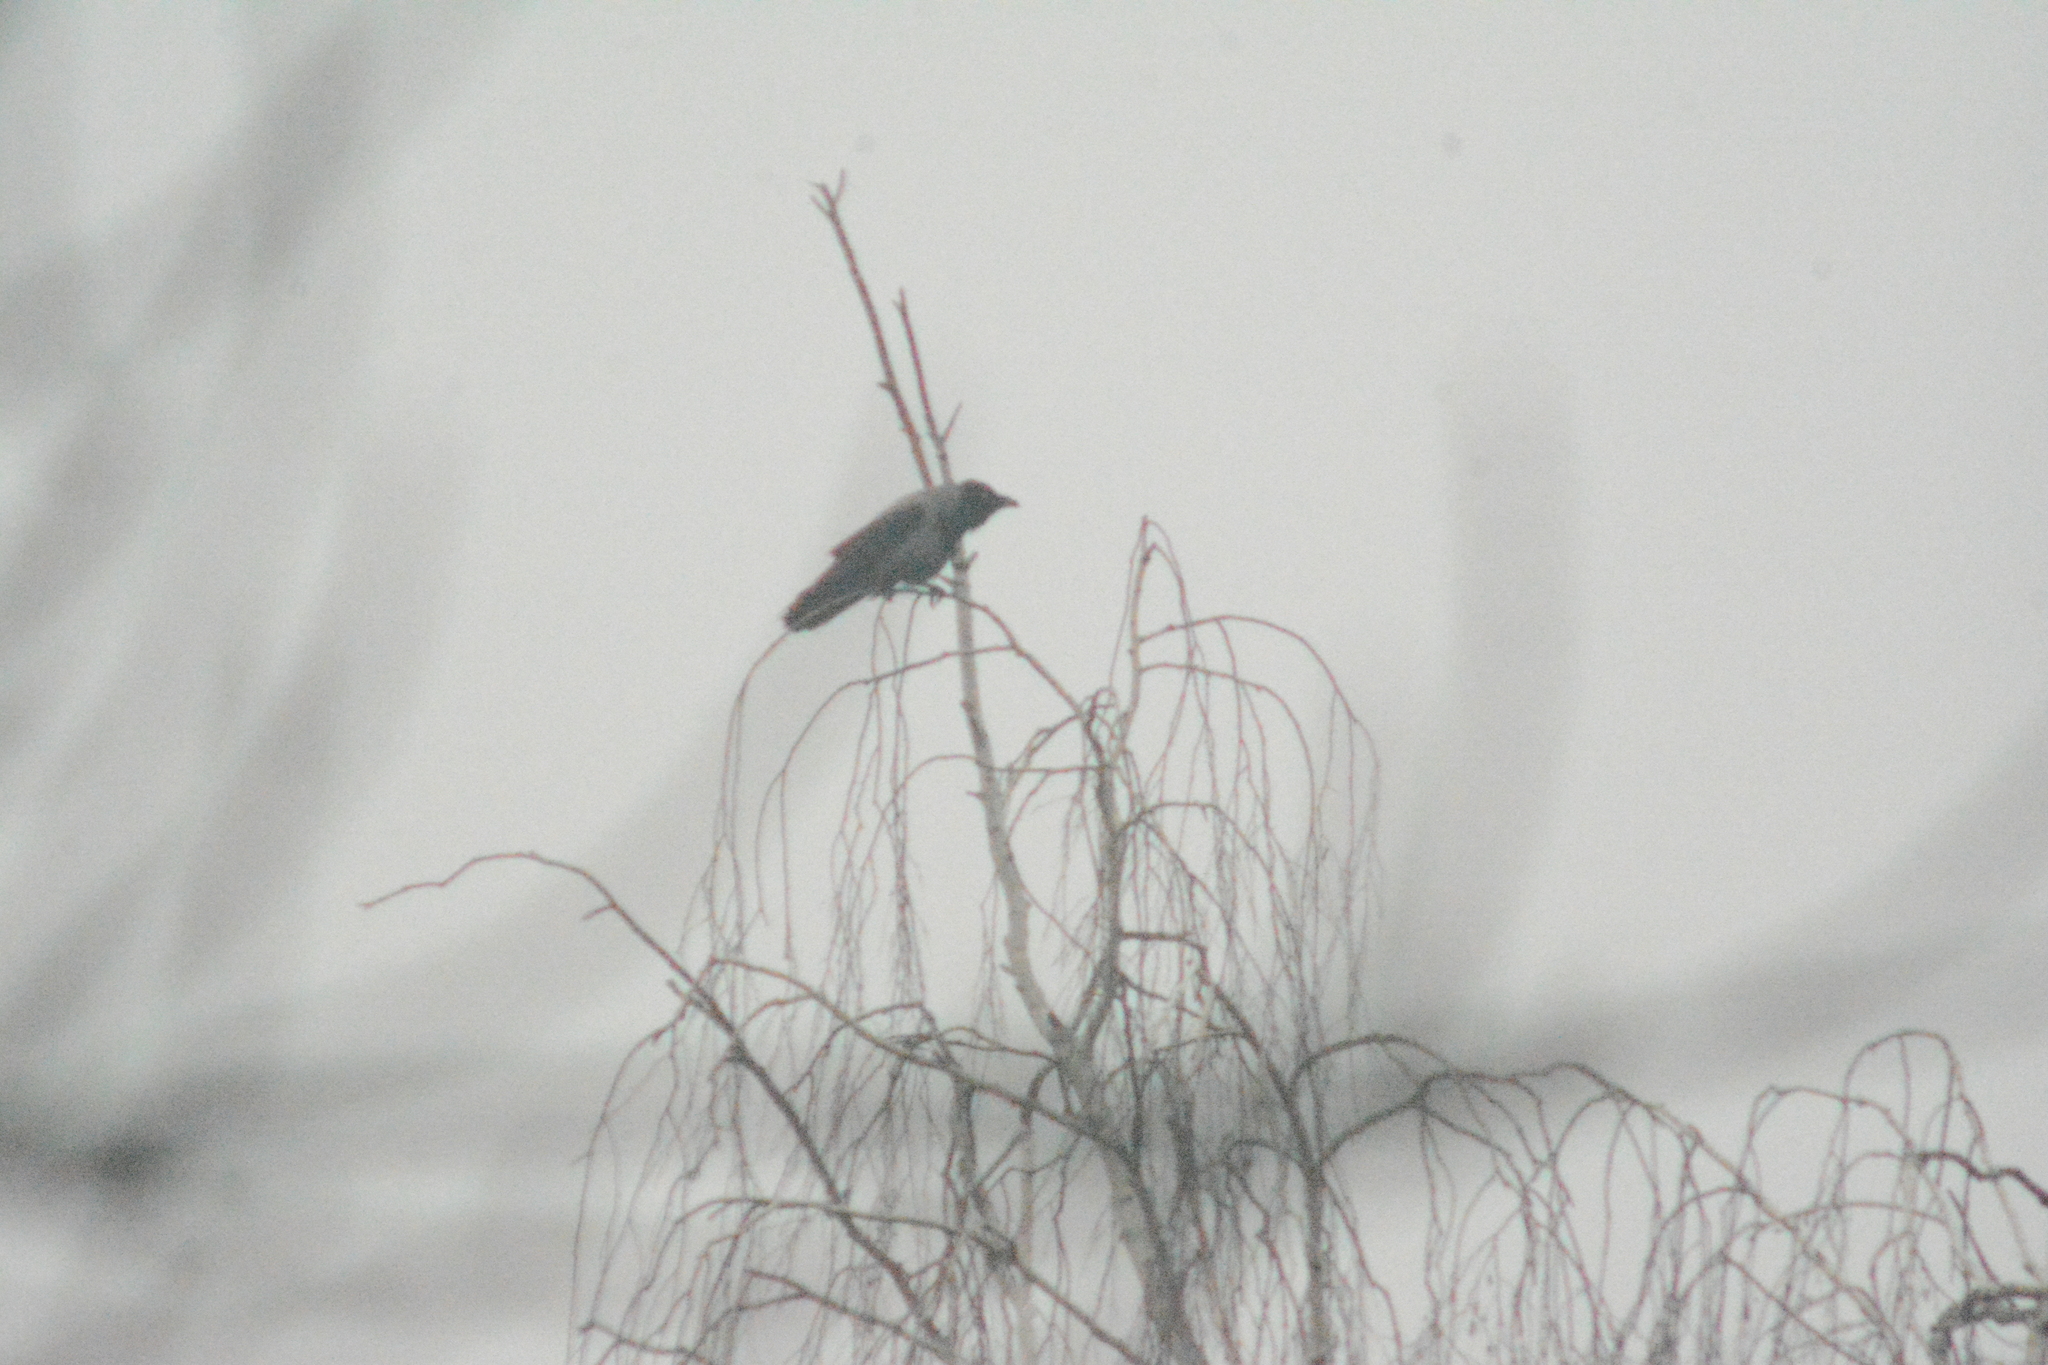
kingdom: Animalia
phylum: Chordata
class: Aves
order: Passeriformes
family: Corvidae
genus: Corvus
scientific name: Corvus cornix
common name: Hooded crow
